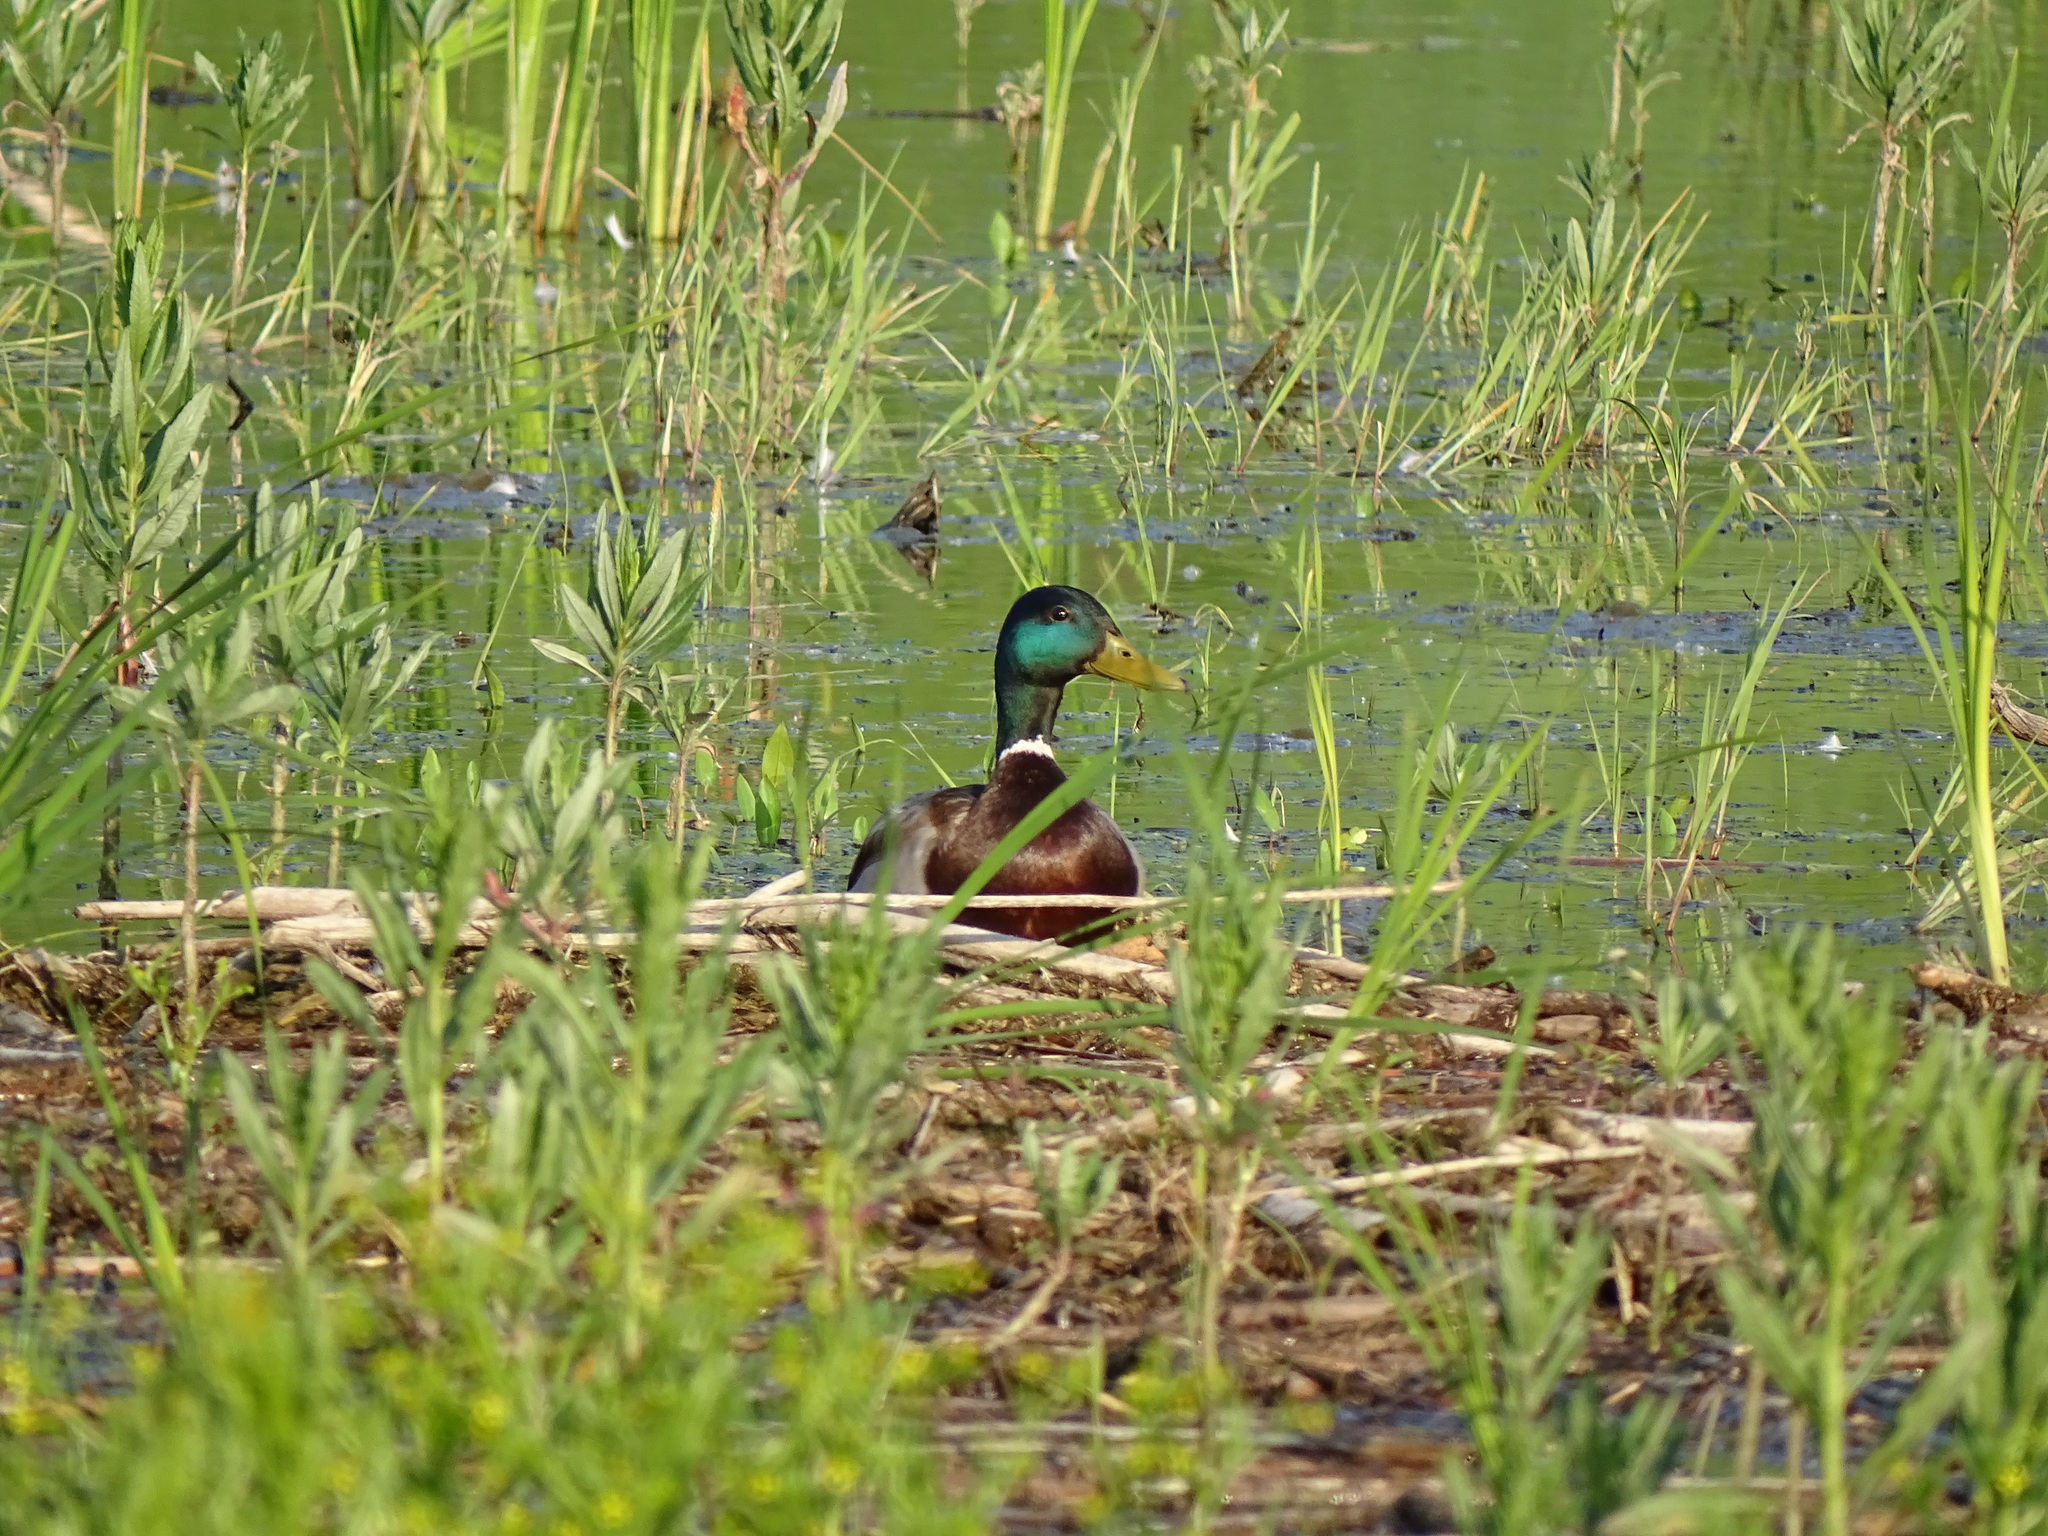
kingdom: Animalia
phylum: Chordata
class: Aves
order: Anseriformes
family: Anatidae
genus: Anas
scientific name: Anas platyrhynchos
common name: Mallard
